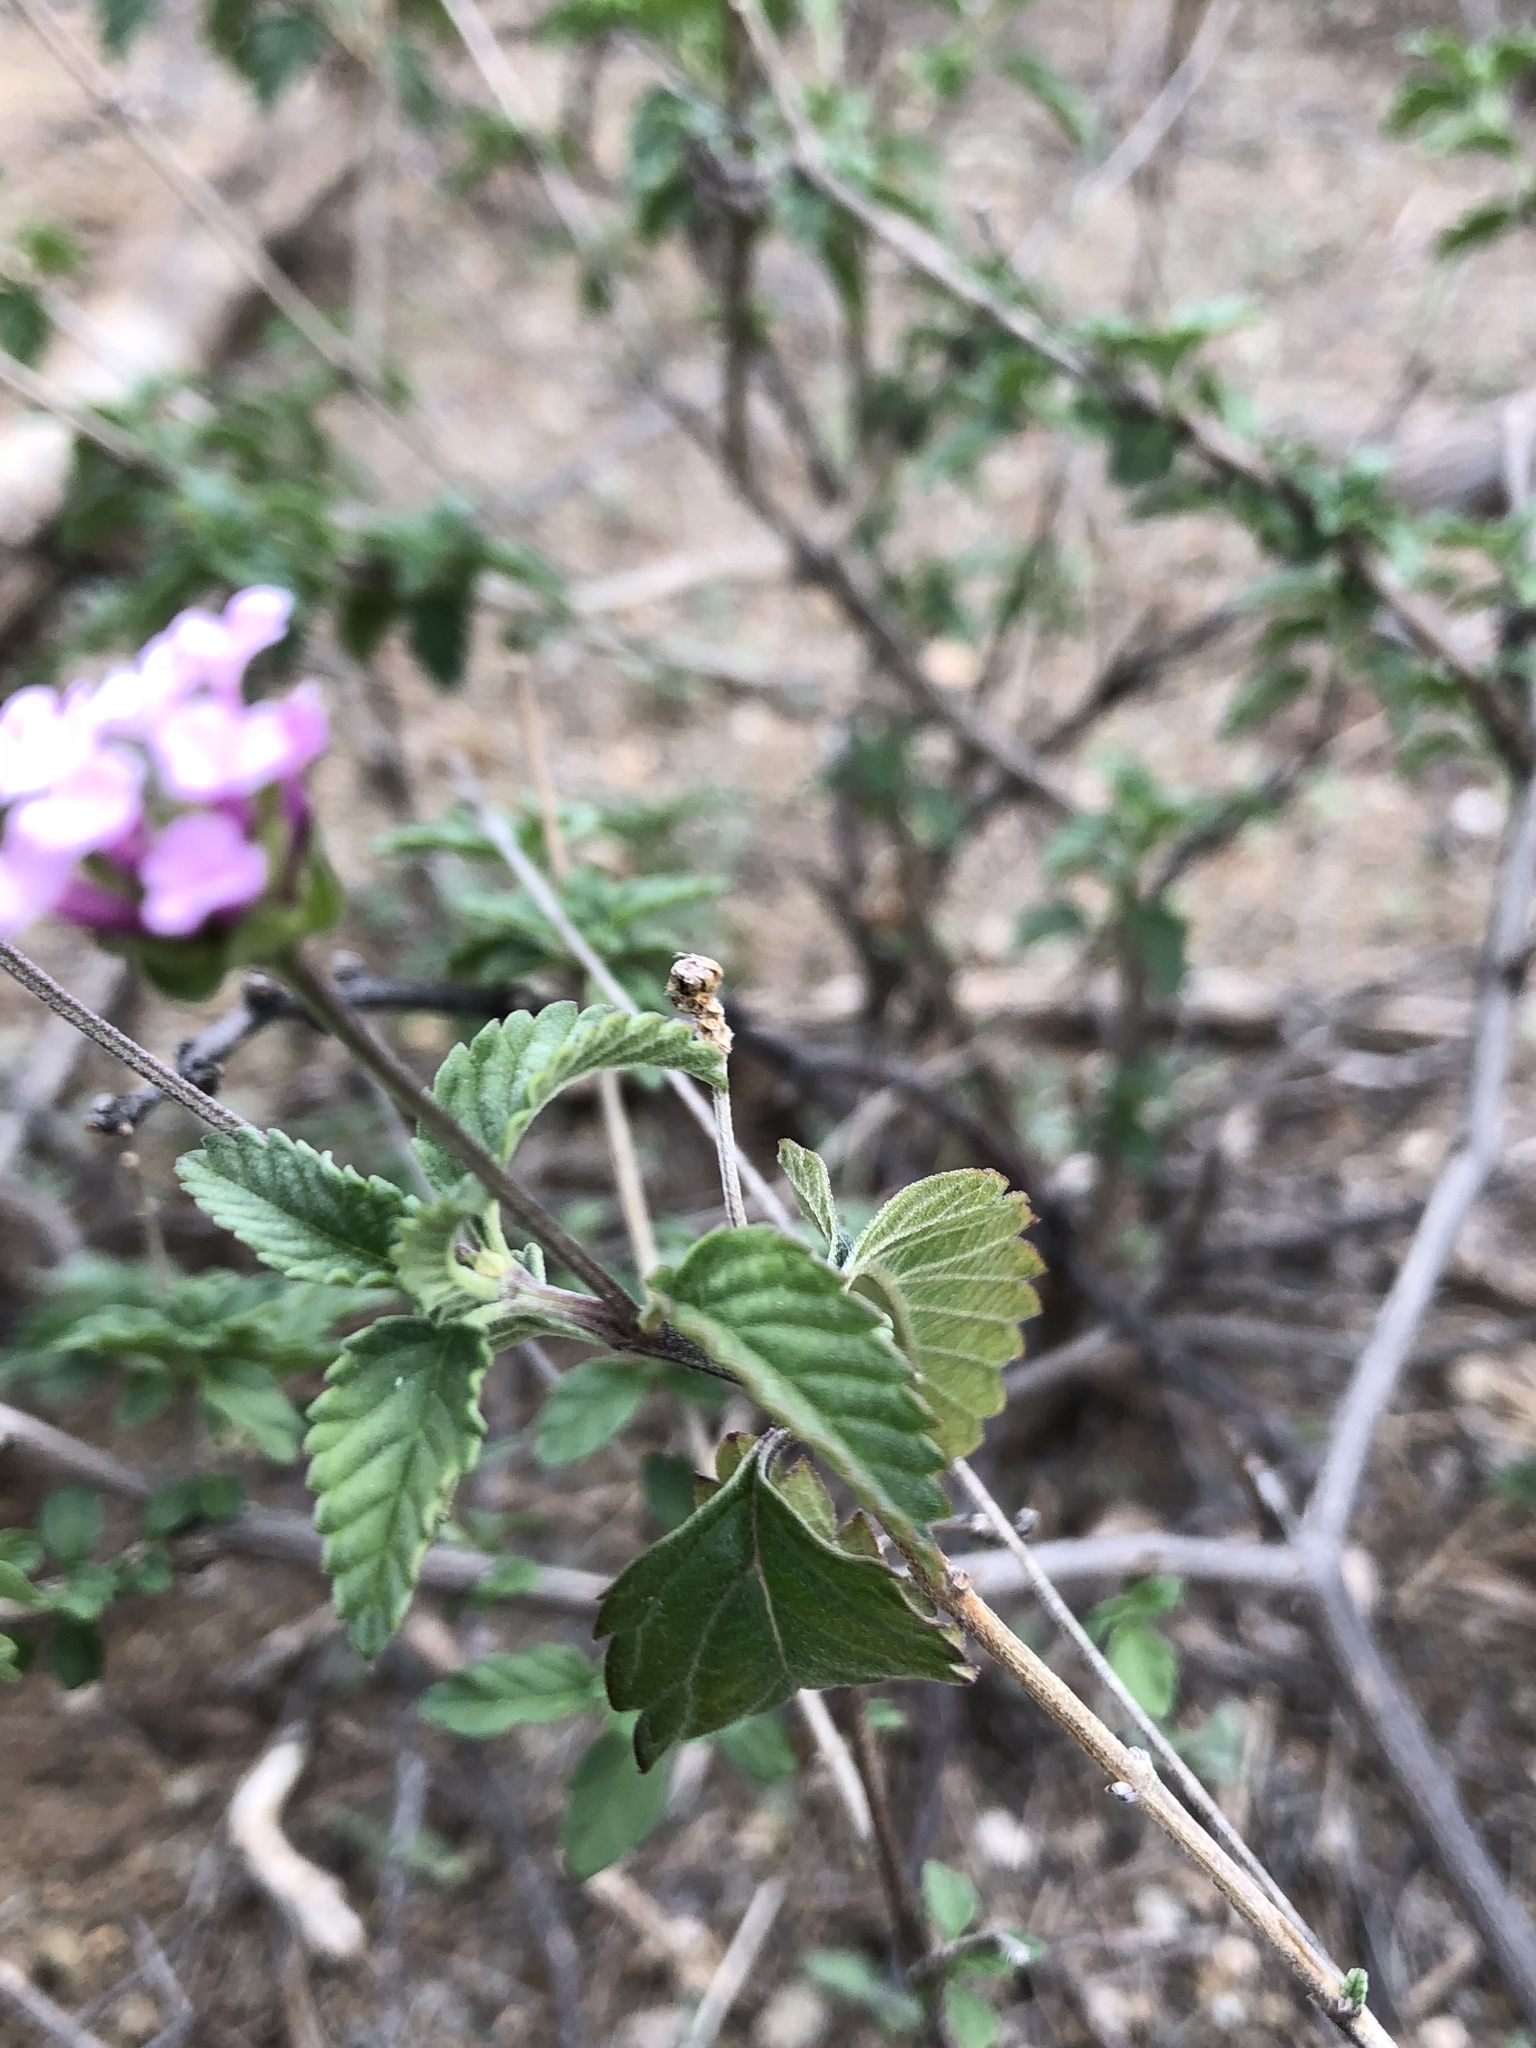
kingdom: Plantae
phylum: Tracheophyta
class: Magnoliopsida
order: Lamiales
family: Verbenaceae
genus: Lantana
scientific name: Lantana montevidensis
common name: Trailing shrubverbena
